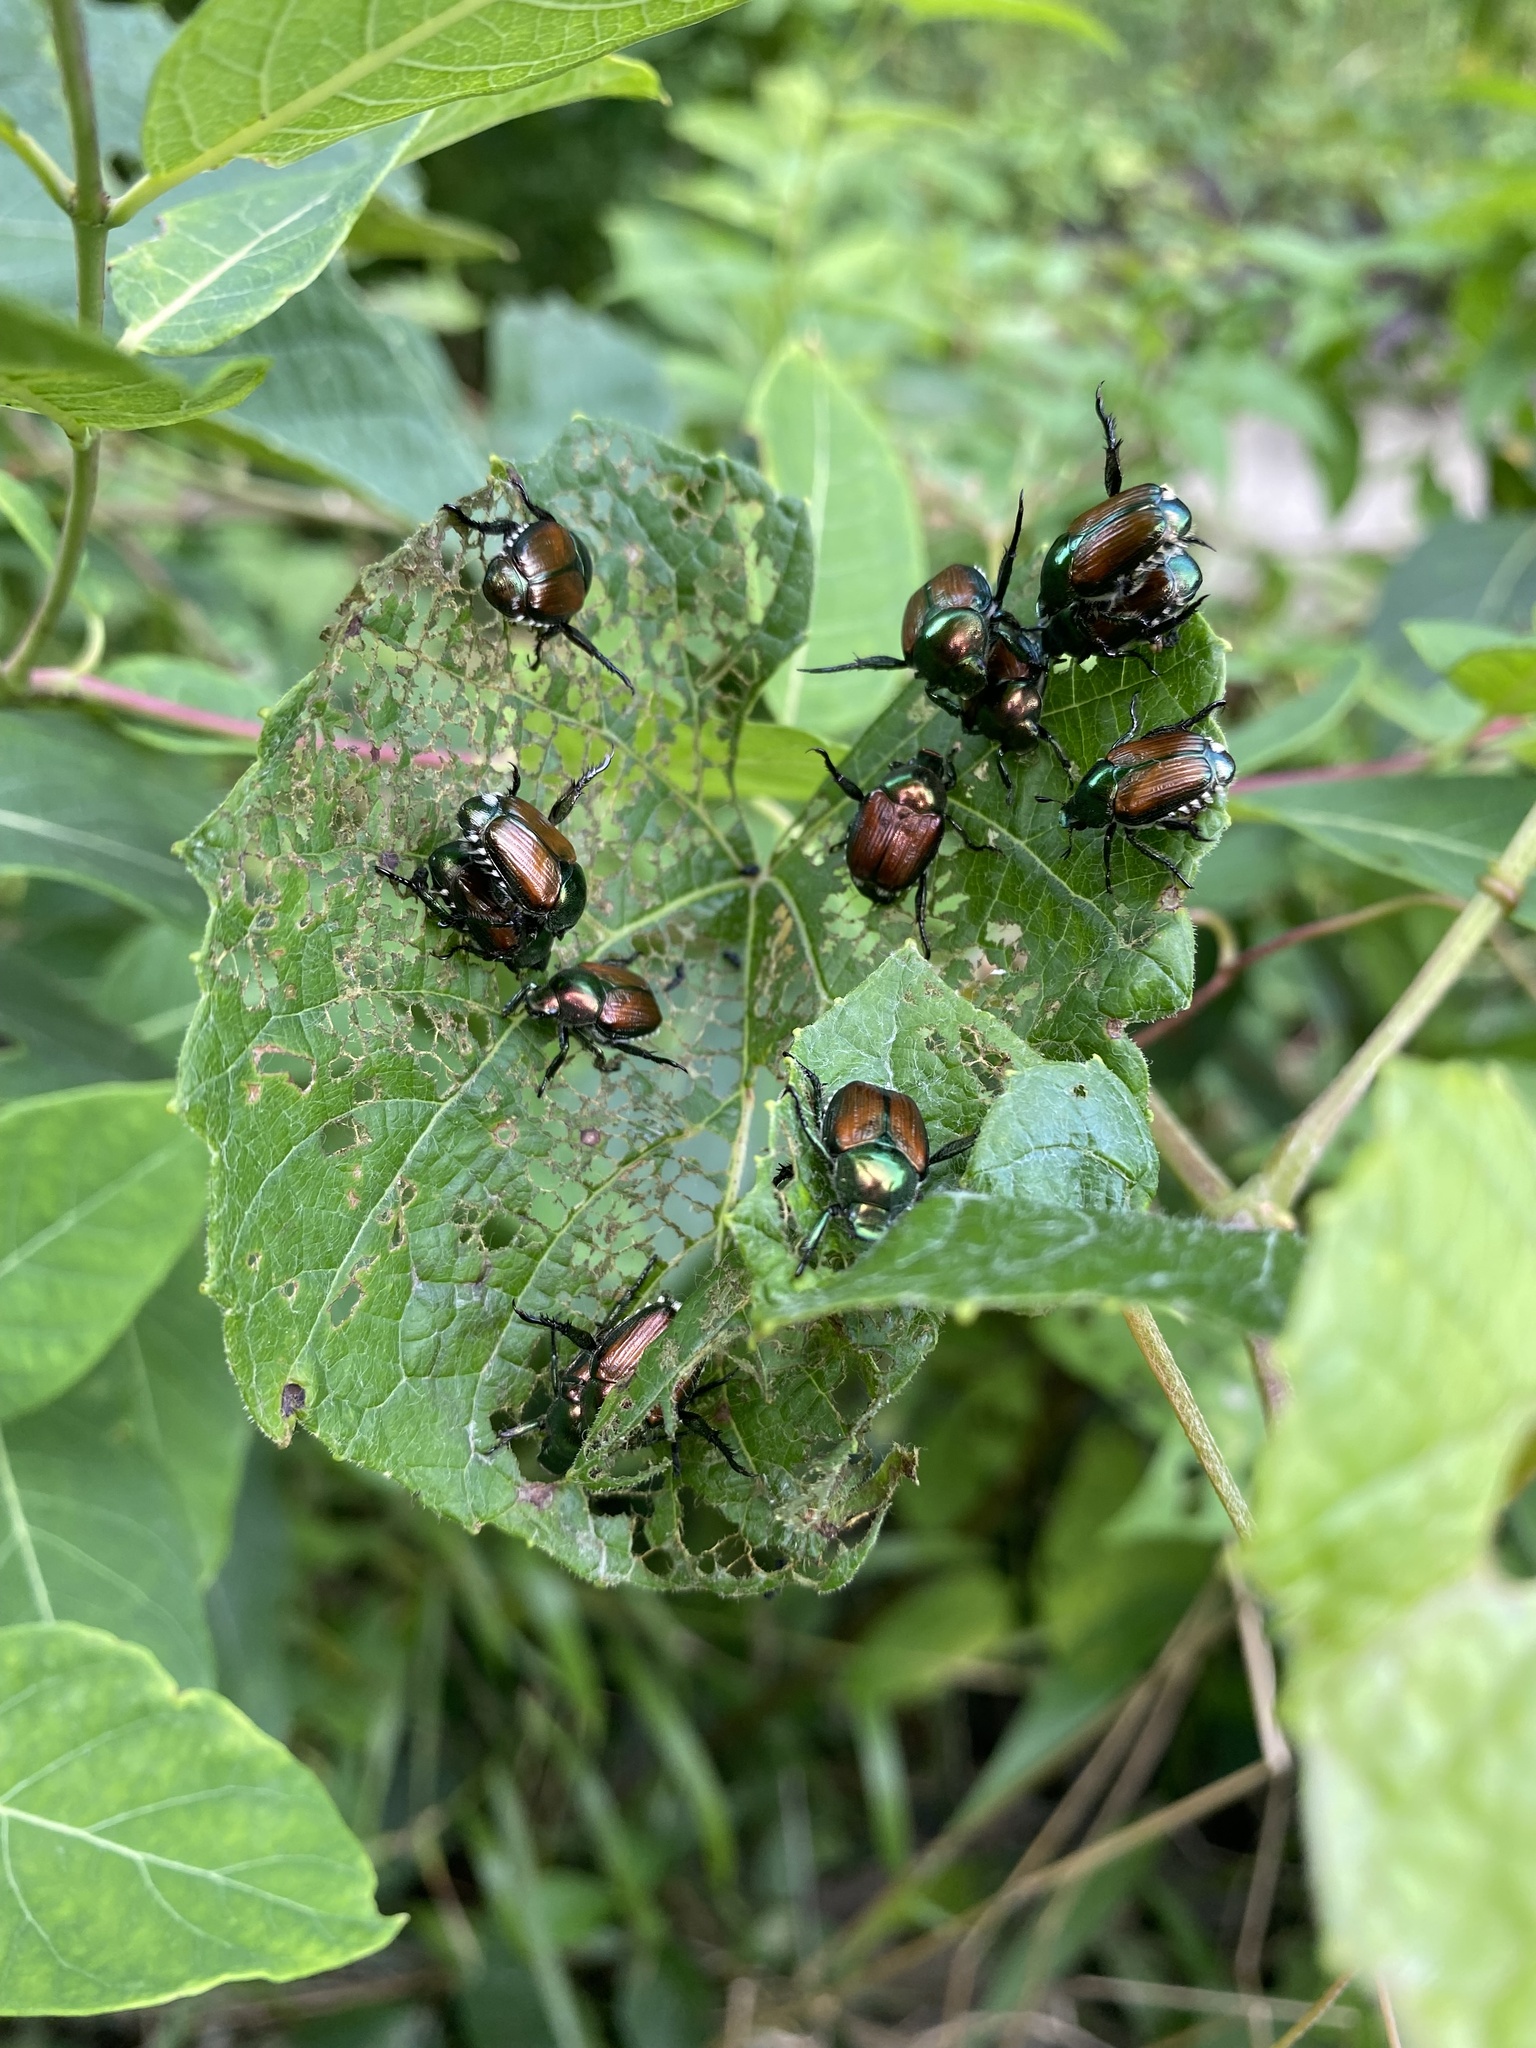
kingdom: Animalia
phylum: Arthropoda
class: Insecta
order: Coleoptera
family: Scarabaeidae
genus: Popillia
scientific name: Popillia japonica
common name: Japanese beetle
